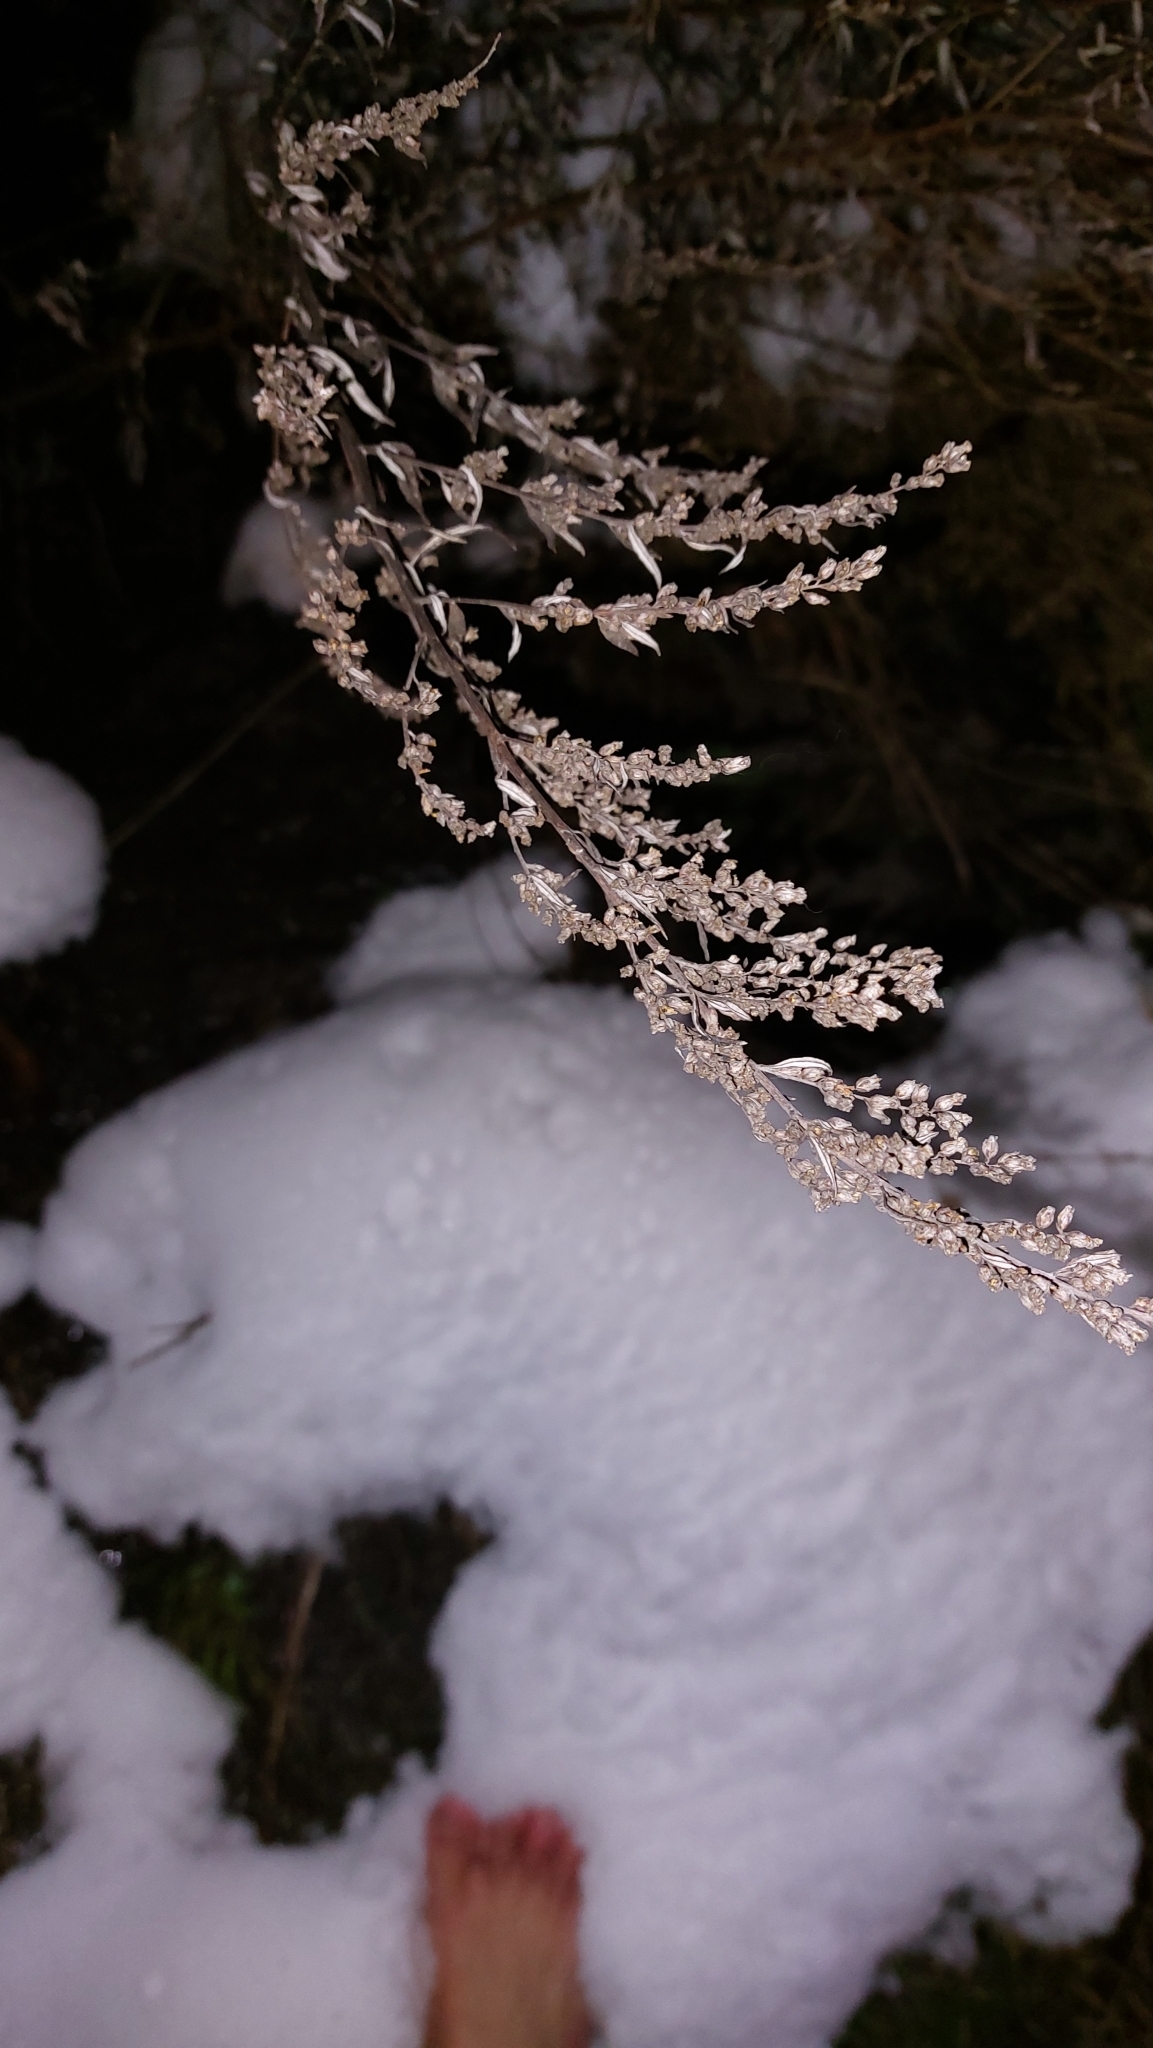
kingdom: Plantae
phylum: Tracheophyta
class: Magnoliopsida
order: Asterales
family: Asteraceae
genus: Artemisia
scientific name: Artemisia vulgaris
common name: Mugwort
